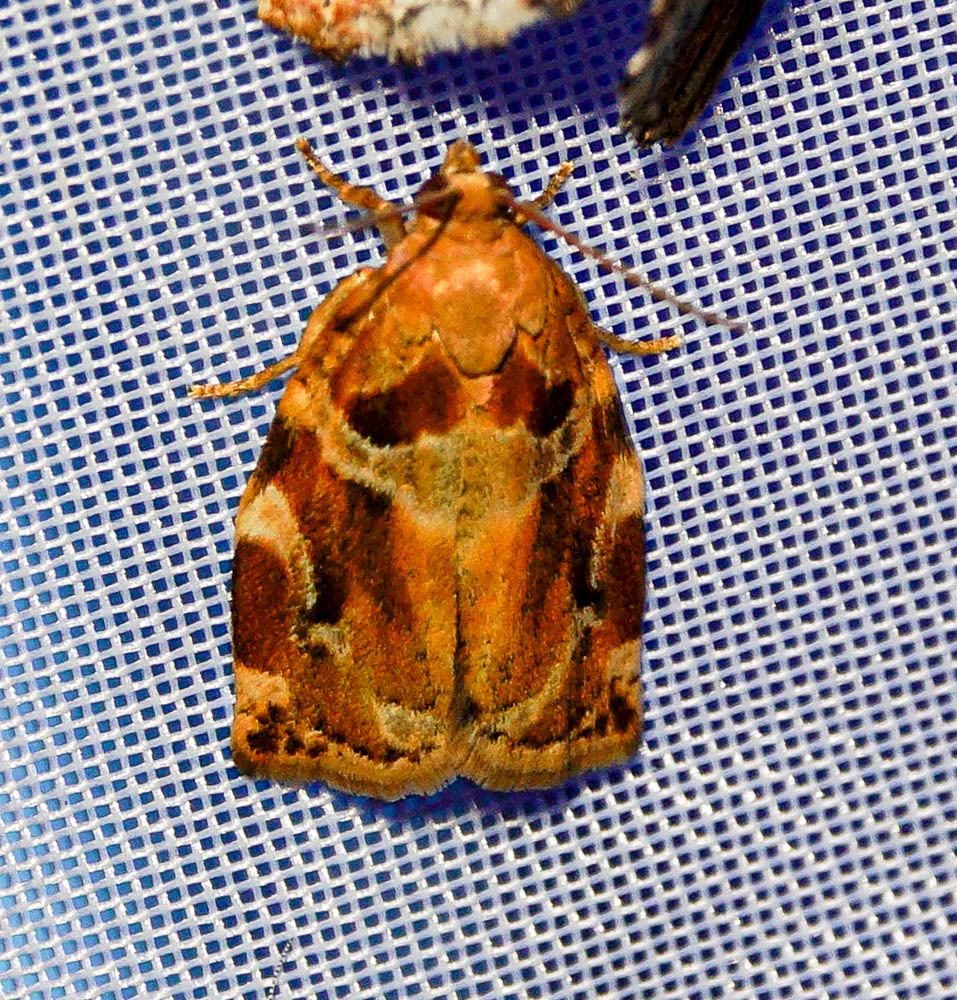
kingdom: Animalia
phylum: Arthropoda
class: Insecta
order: Lepidoptera
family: Tortricidae
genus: Archips
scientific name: Archips xylosteana
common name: Variegated golden tortrix
